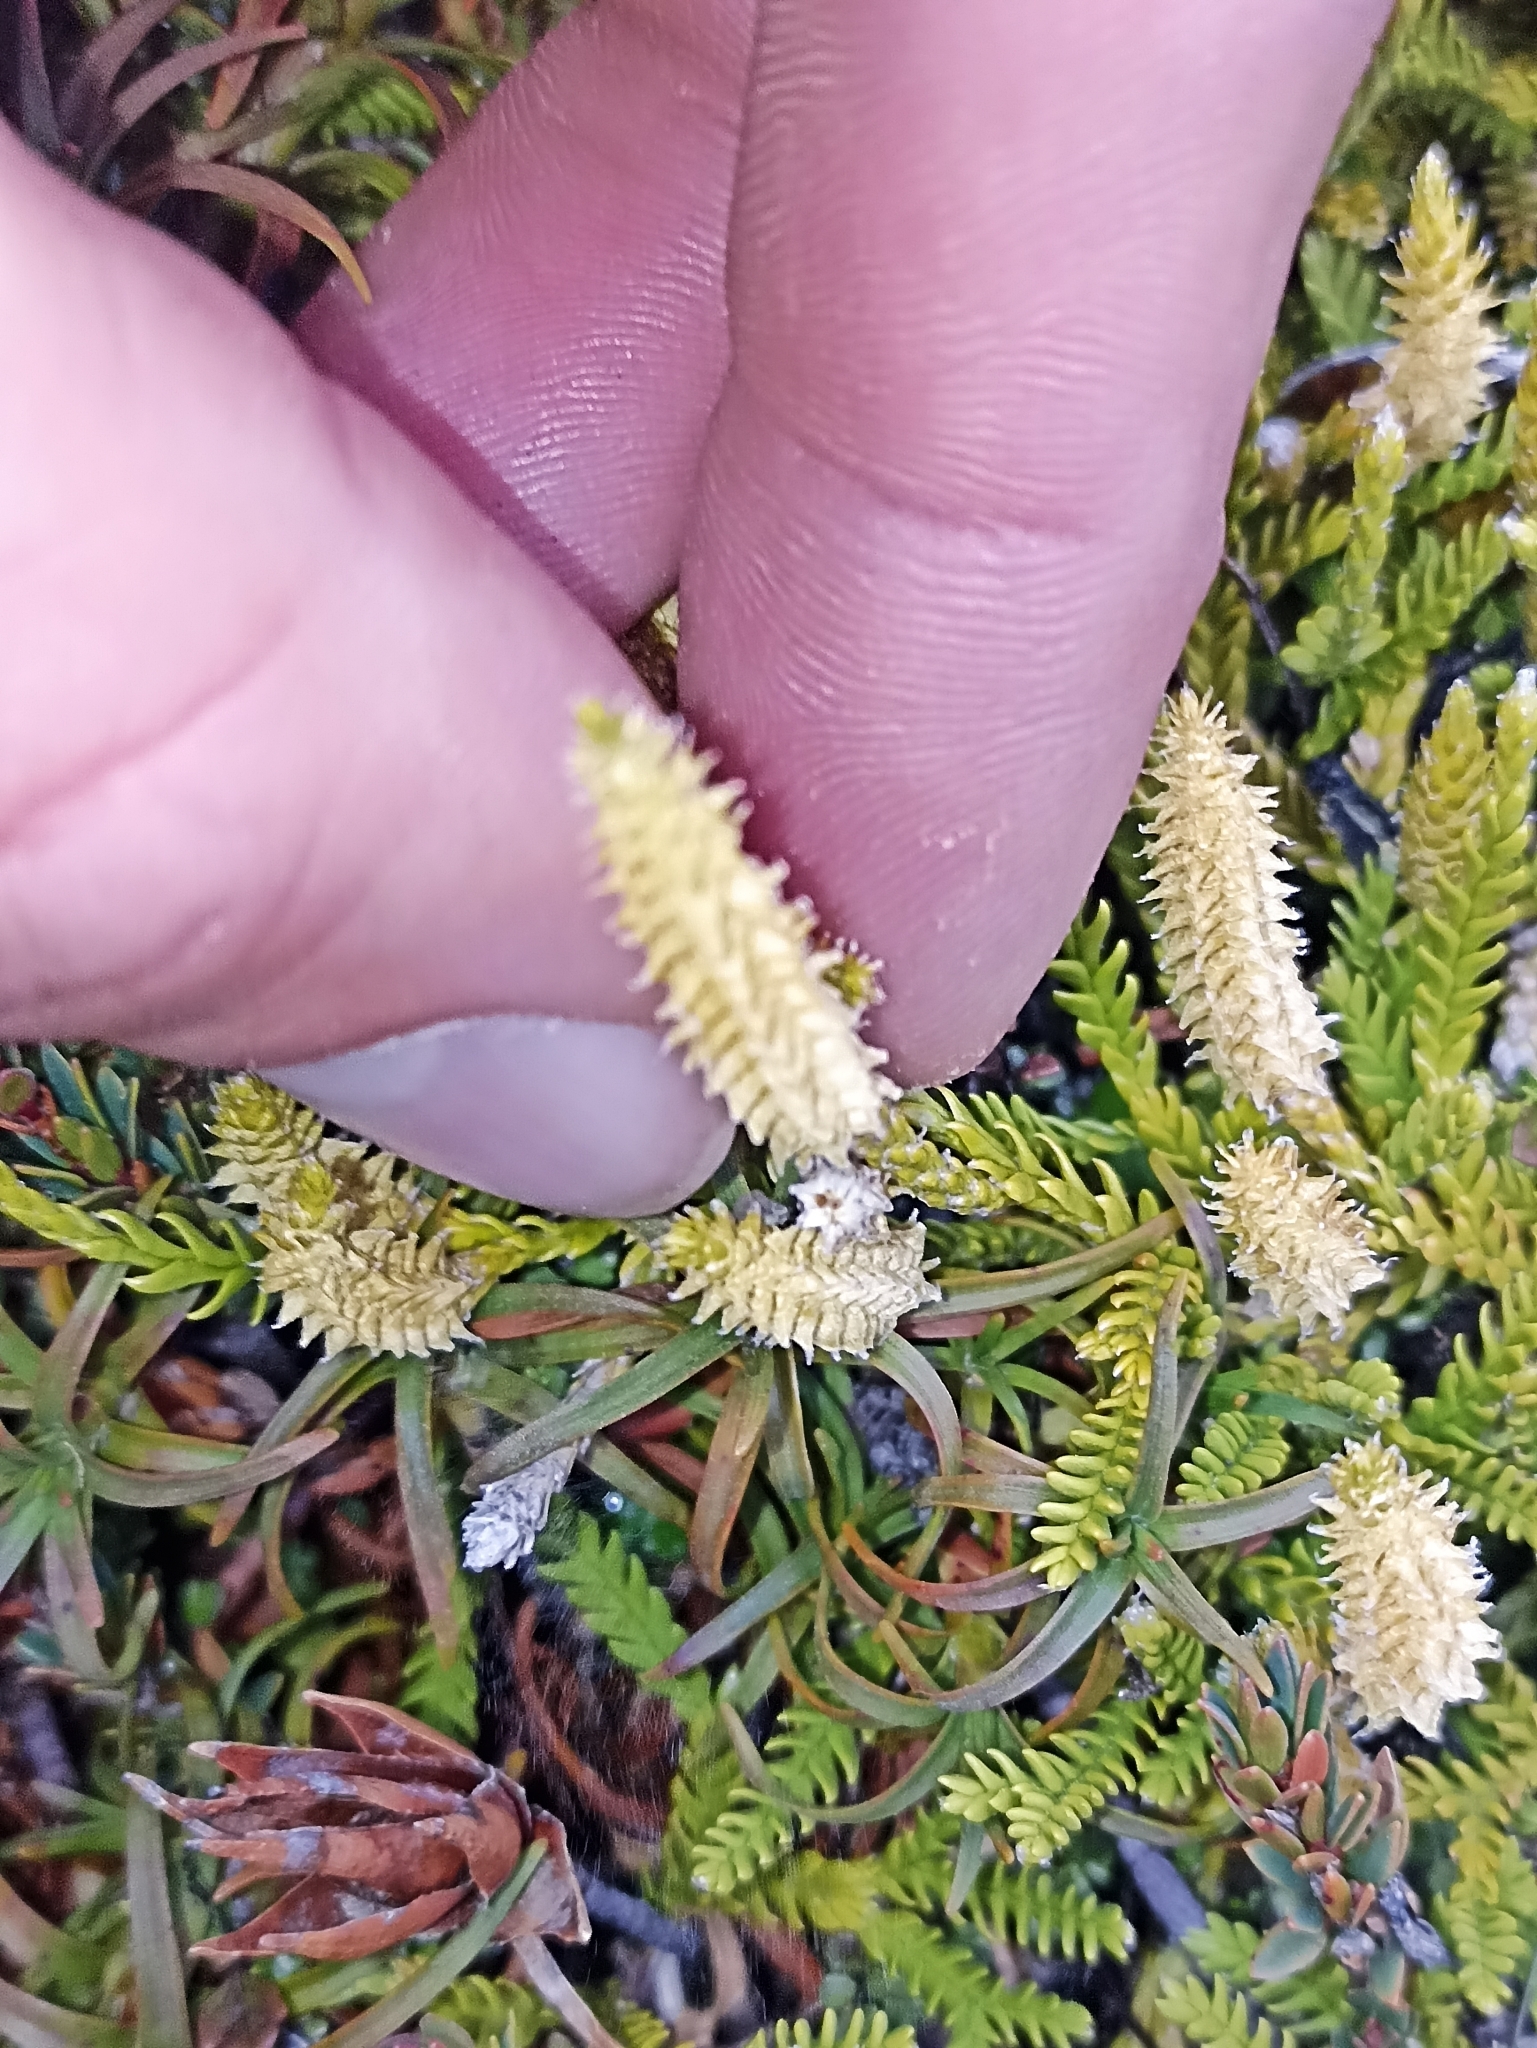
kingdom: Plantae
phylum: Tracheophyta
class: Lycopodiopsida
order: Lycopodiales
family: Lycopodiaceae
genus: Diphasium
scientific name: Diphasium scariosum
